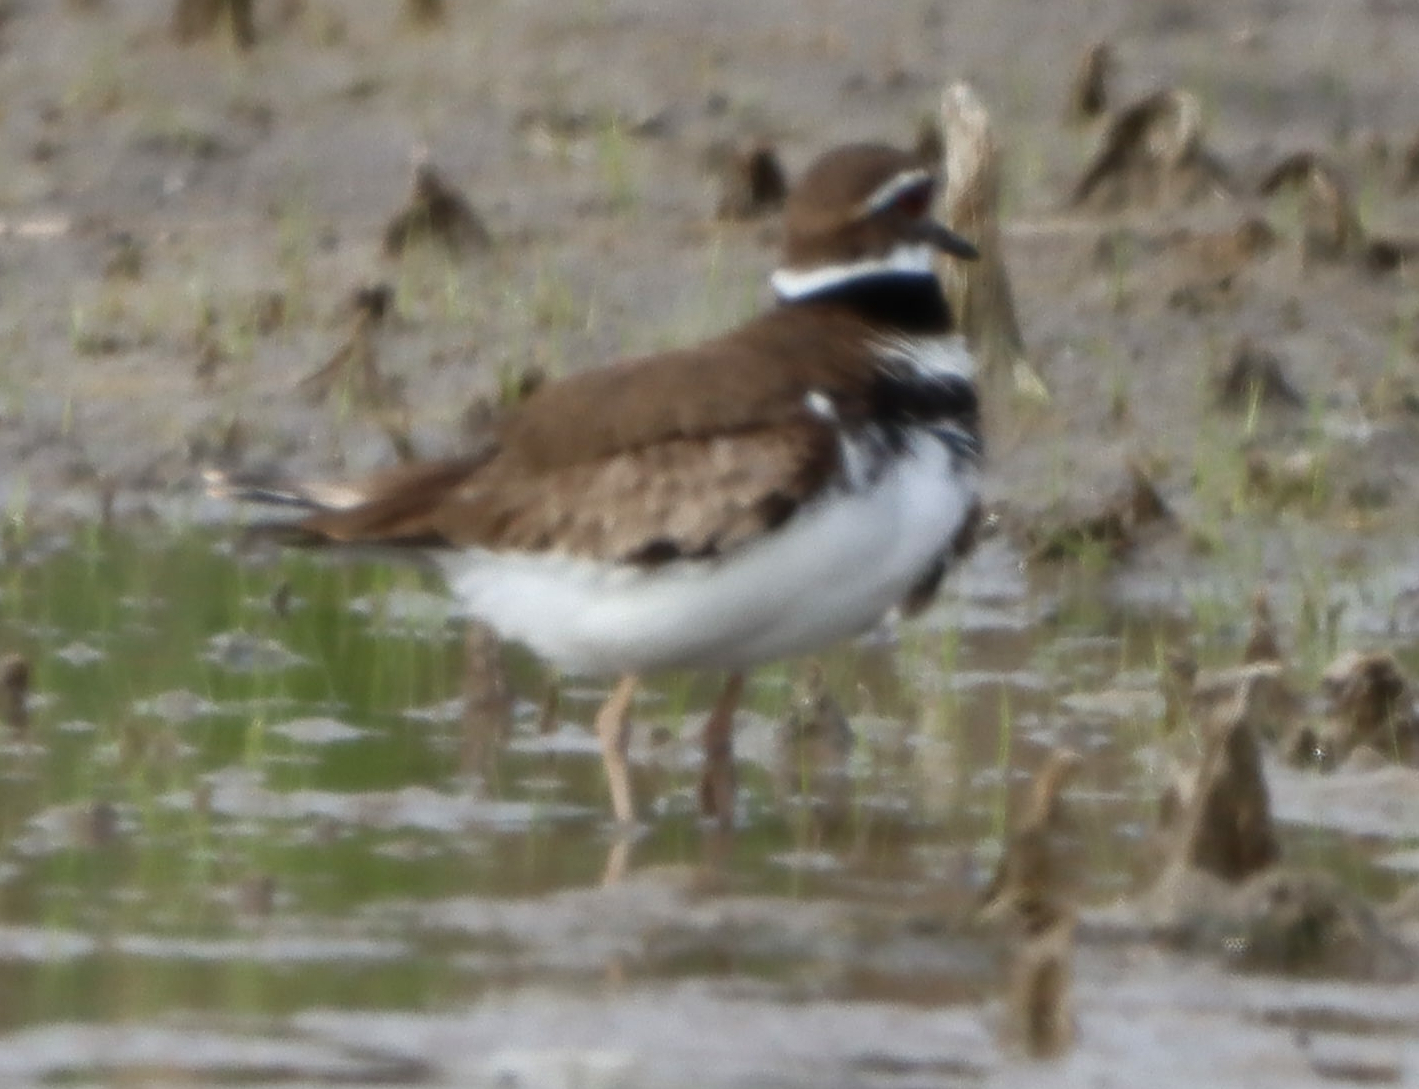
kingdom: Animalia
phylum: Chordata
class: Aves
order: Charadriiformes
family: Charadriidae
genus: Charadrius
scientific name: Charadrius vociferus
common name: Killdeer
